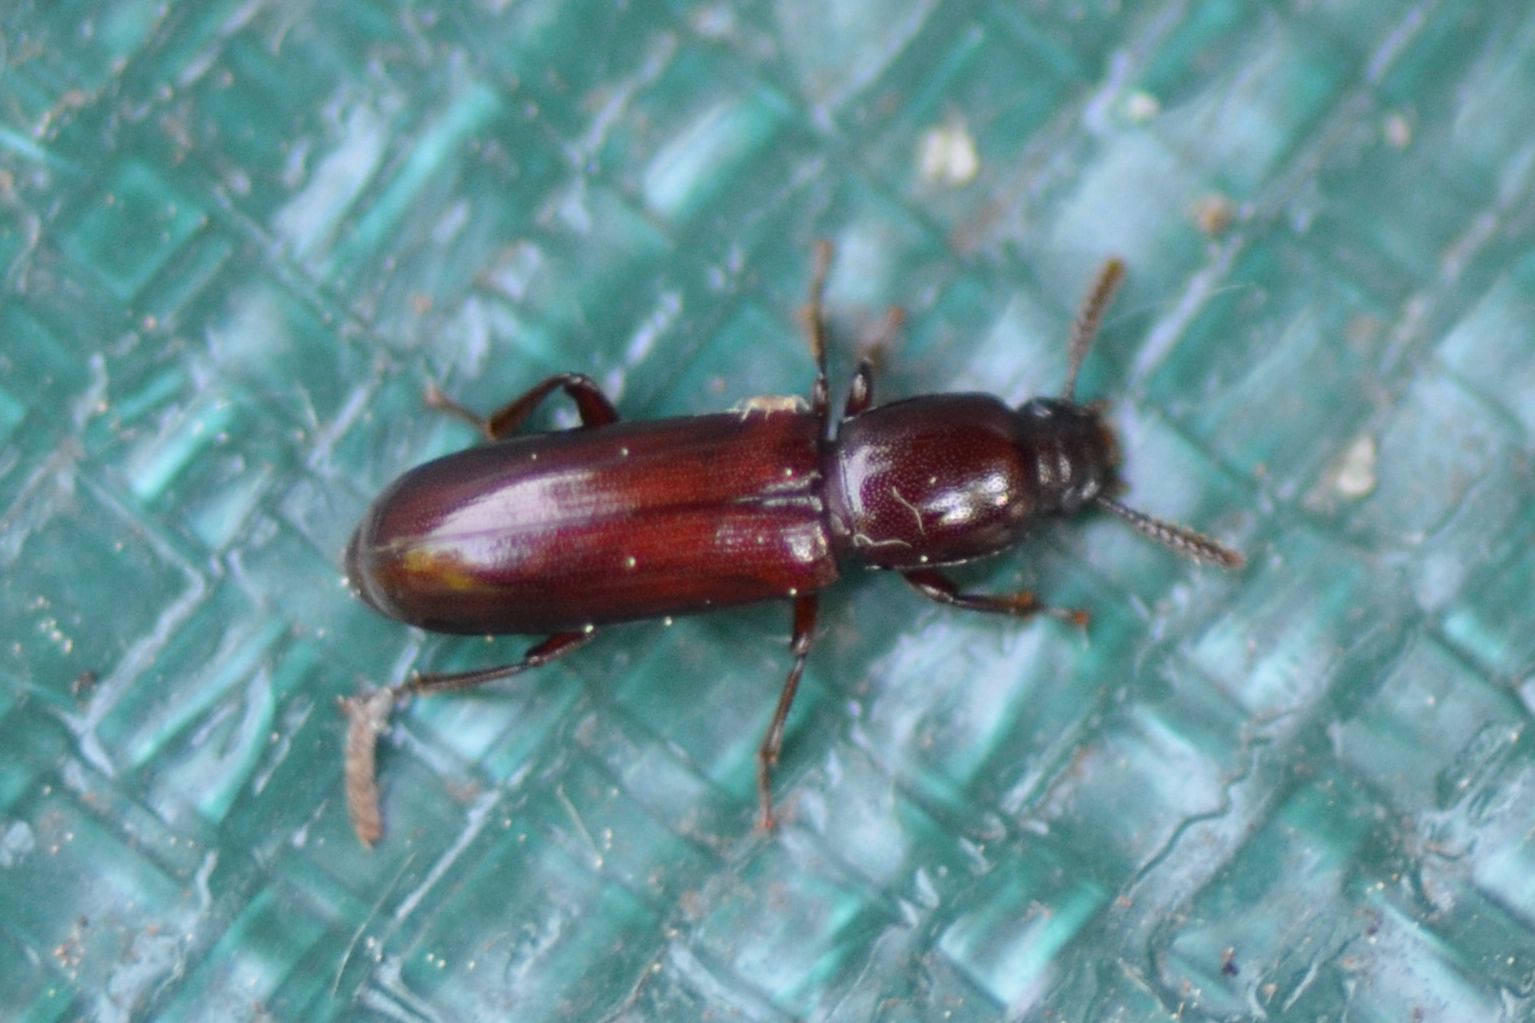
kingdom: Animalia
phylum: Arthropoda
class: Insecta
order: Coleoptera
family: Tenebrionidae
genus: Corticeus
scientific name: Corticeus unicolor
